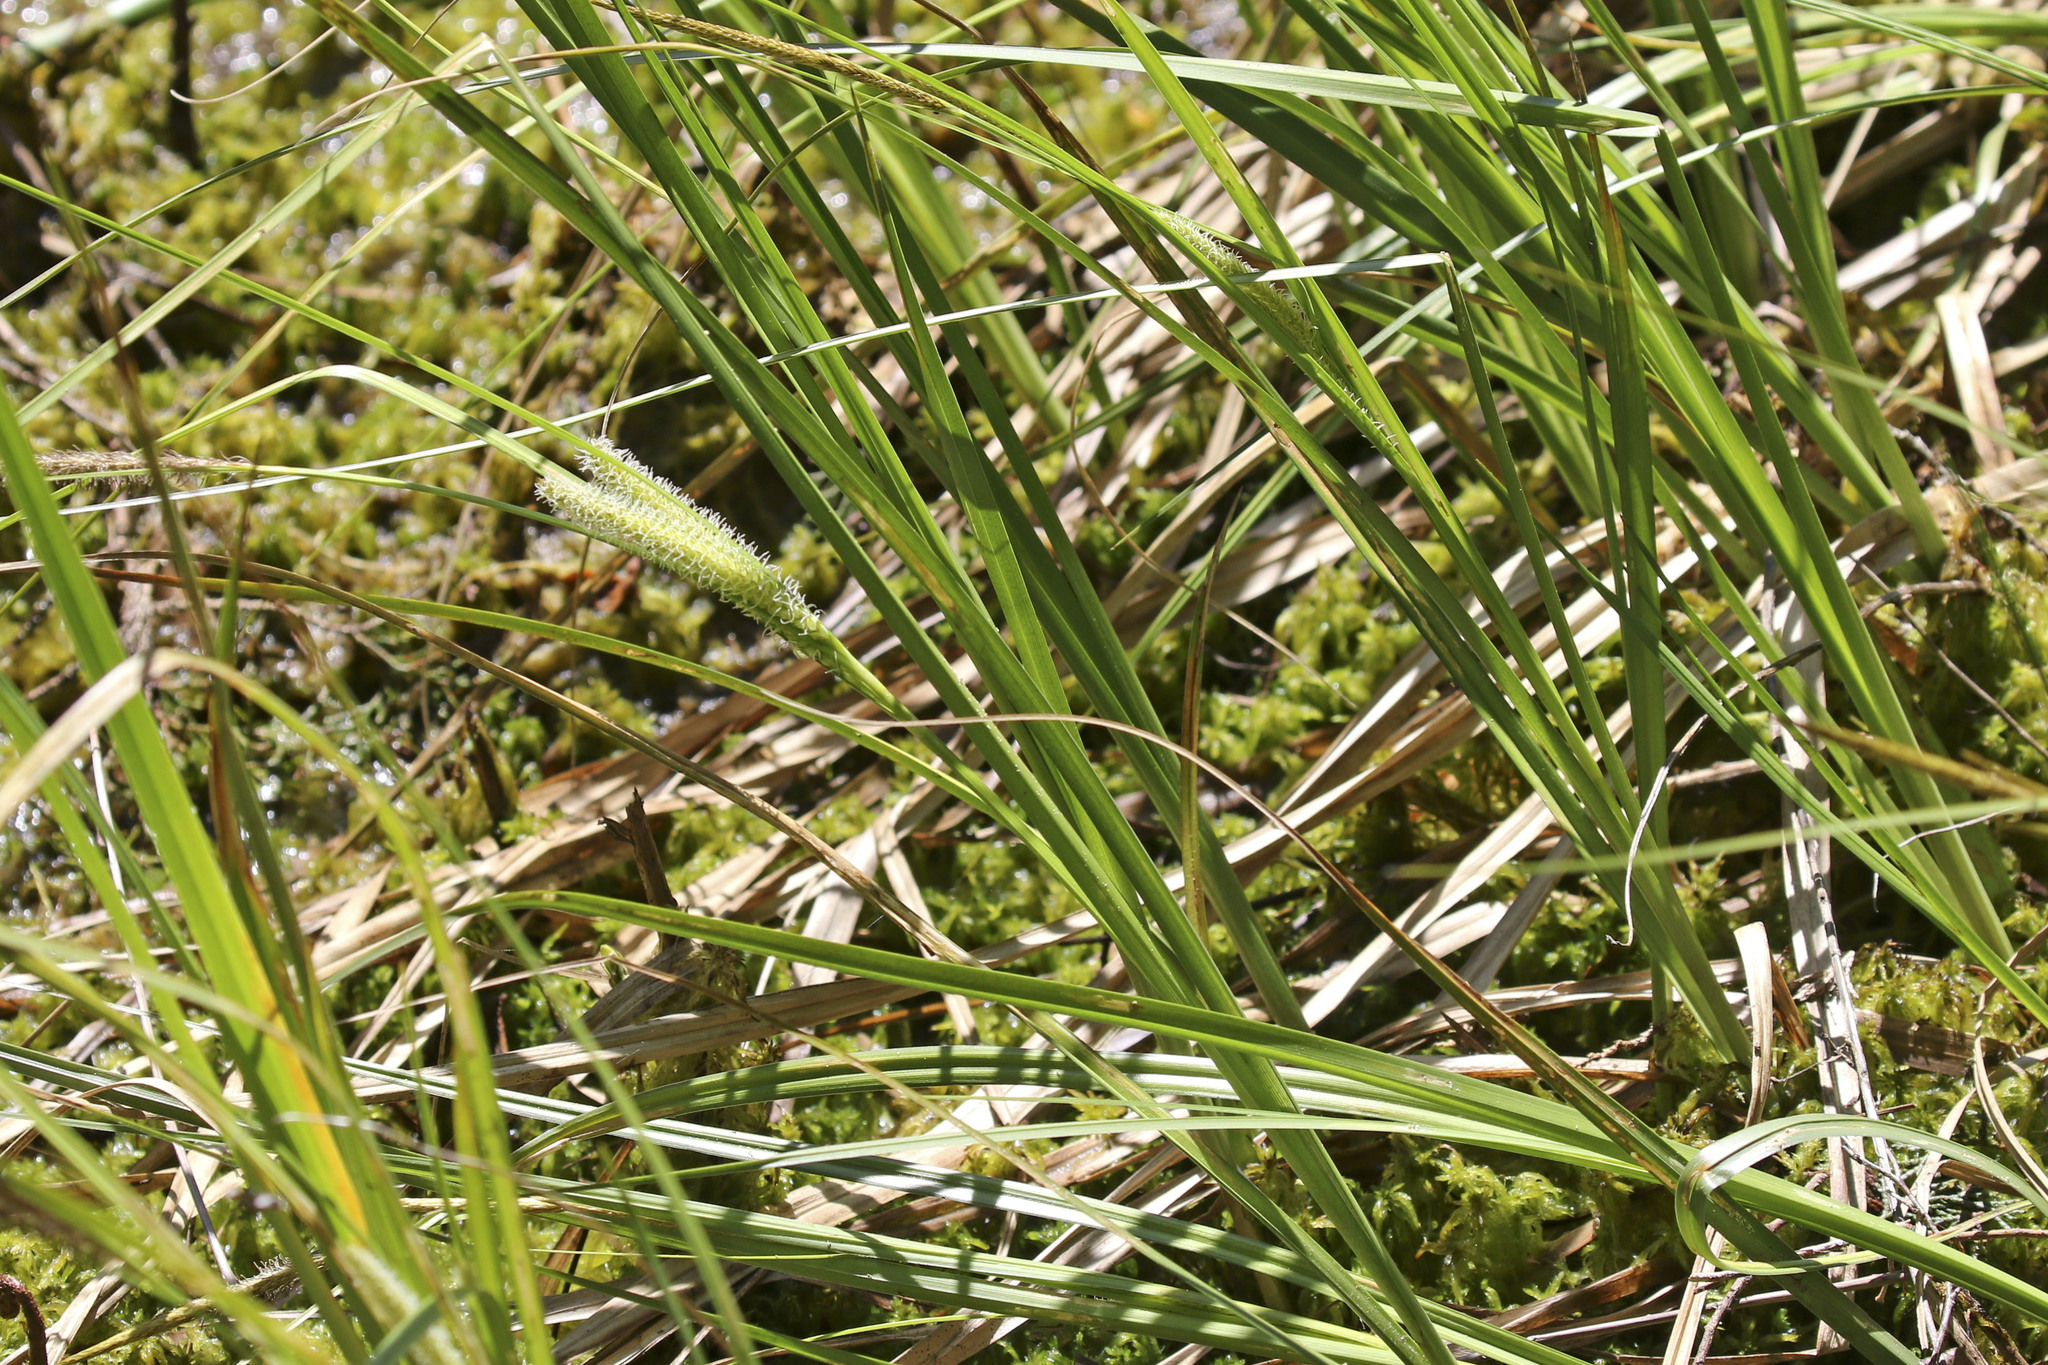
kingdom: Plantae
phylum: Tracheophyta
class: Liliopsida
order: Poales
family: Cyperaceae
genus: Carex
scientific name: Carex lasiocarpa
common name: Slender sedge
